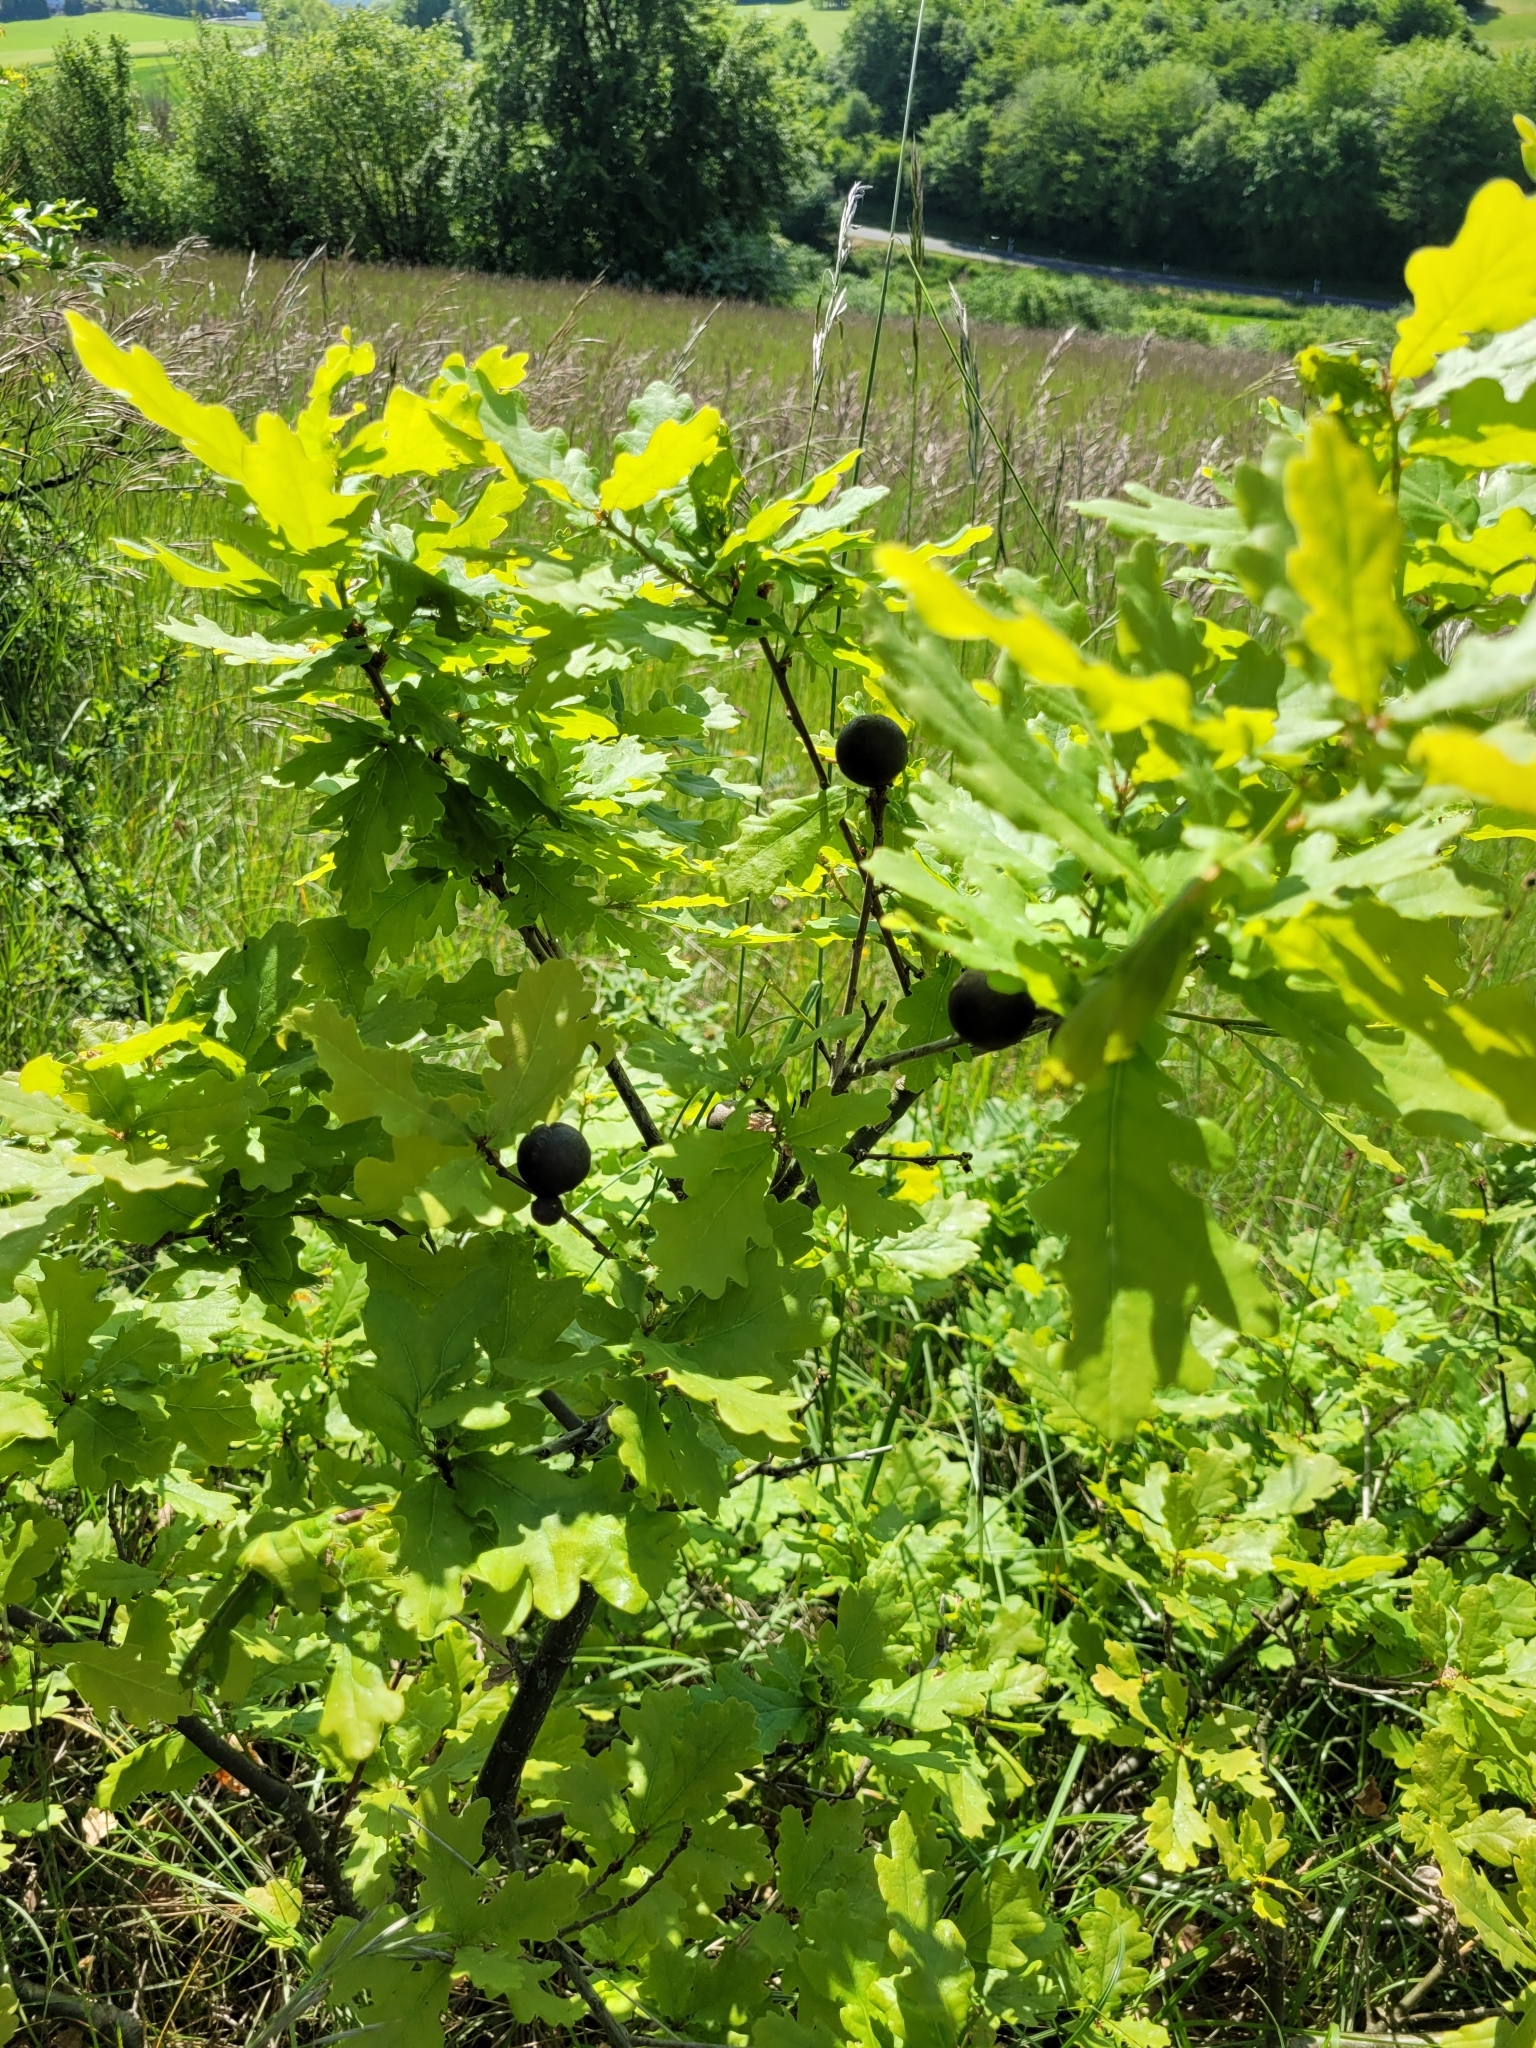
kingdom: Animalia
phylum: Arthropoda
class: Insecta
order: Hymenoptera
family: Cynipidae
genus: Andricus
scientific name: Andricus kollari
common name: Marble gall
